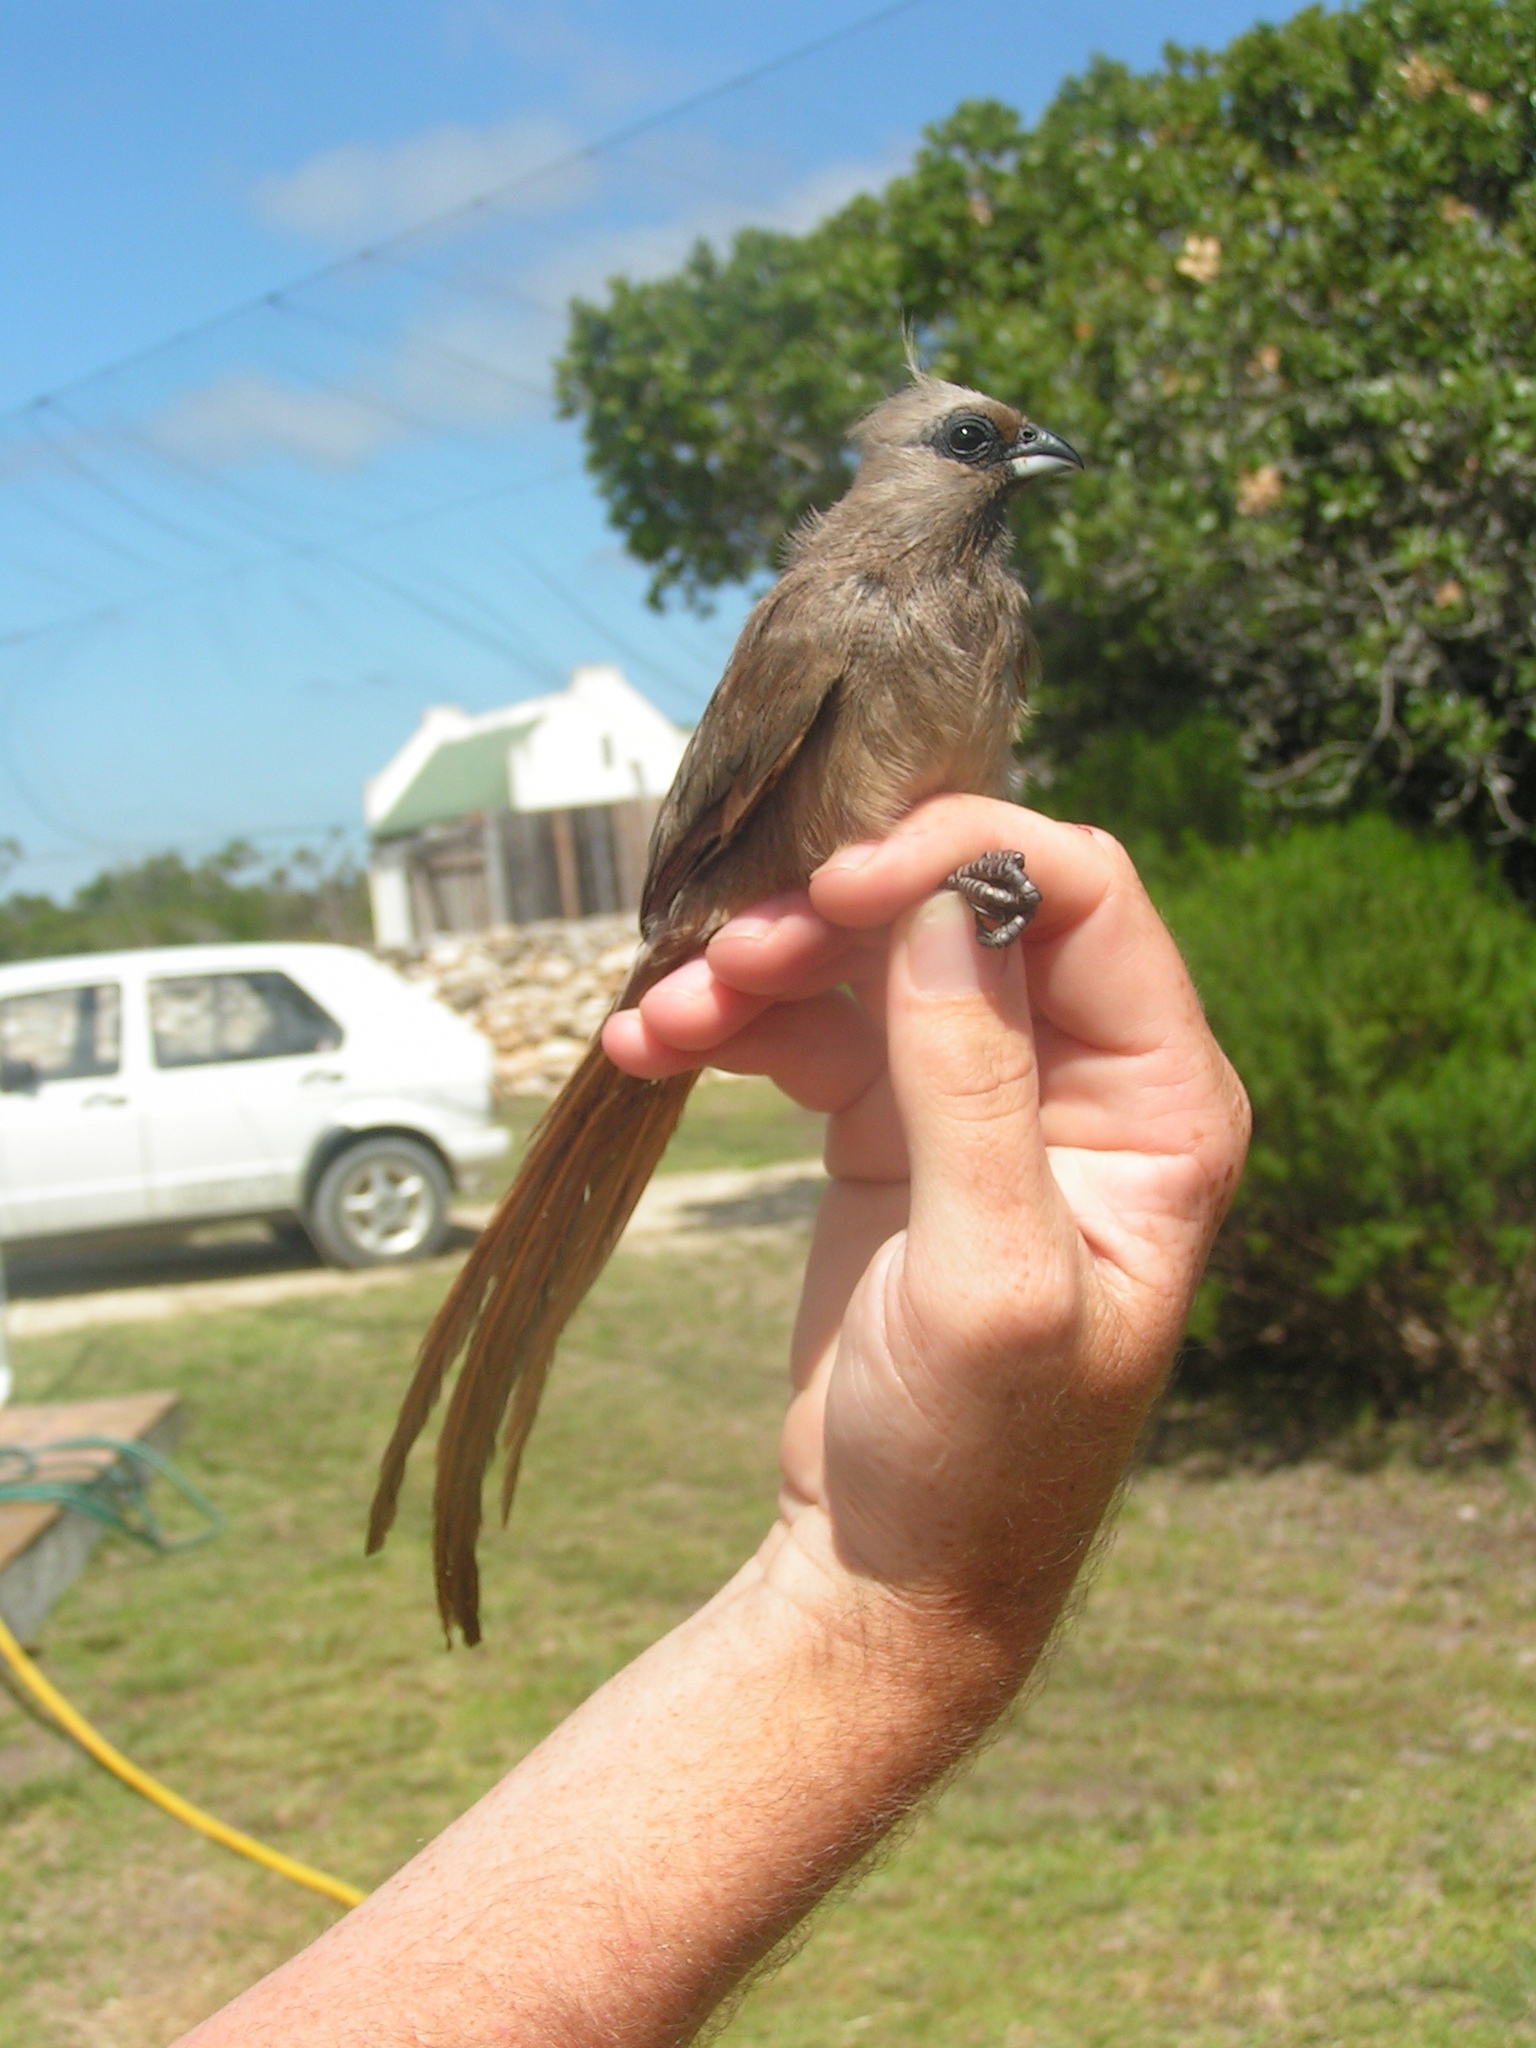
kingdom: Animalia
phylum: Chordata
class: Aves
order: Coliiformes
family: Coliidae
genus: Colius
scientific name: Colius striatus
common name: Speckled mousebird
